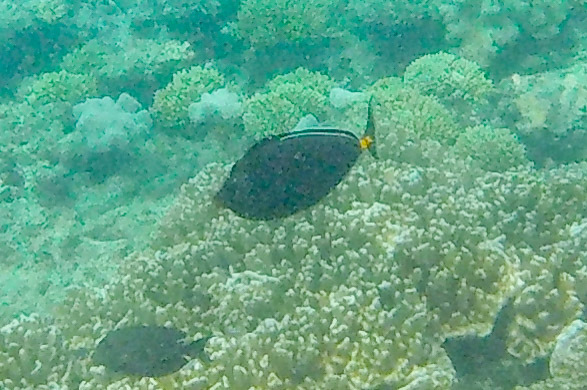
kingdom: Animalia
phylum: Chordata
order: Perciformes
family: Acanthuridae
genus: Naso
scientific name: Naso lituratus
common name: Orangespine unicornfish
